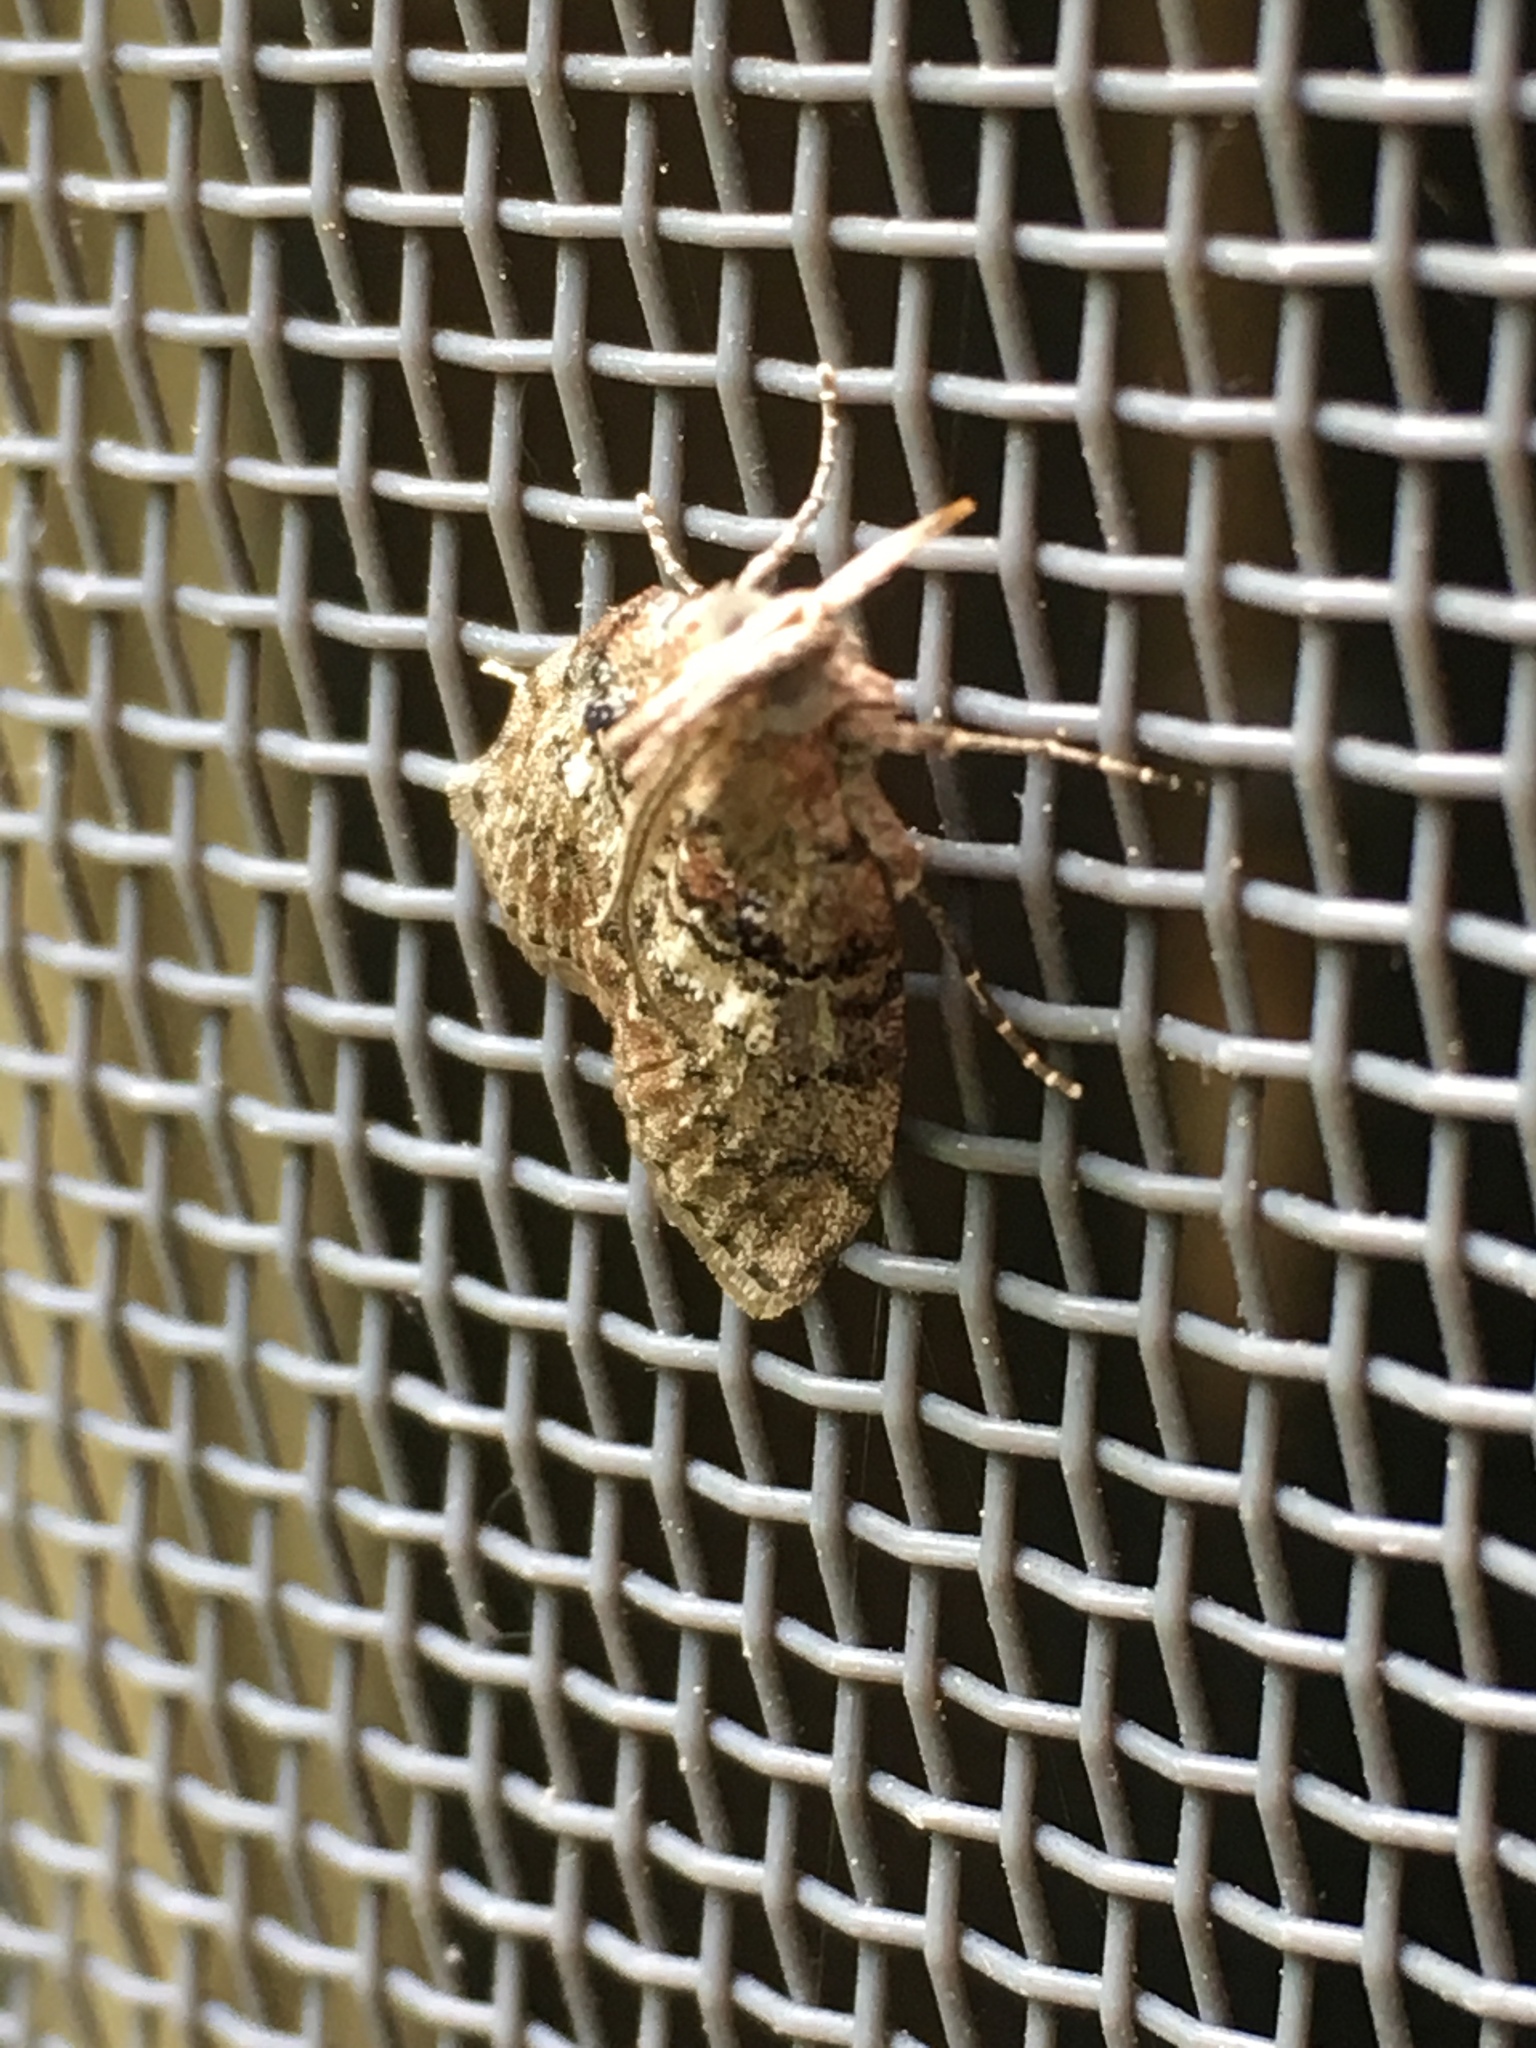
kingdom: Animalia
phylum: Arthropoda
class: Insecta
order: Lepidoptera
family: Pyralidae
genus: Pococera
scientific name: Pococera asperatella
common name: Maple webworm moth
